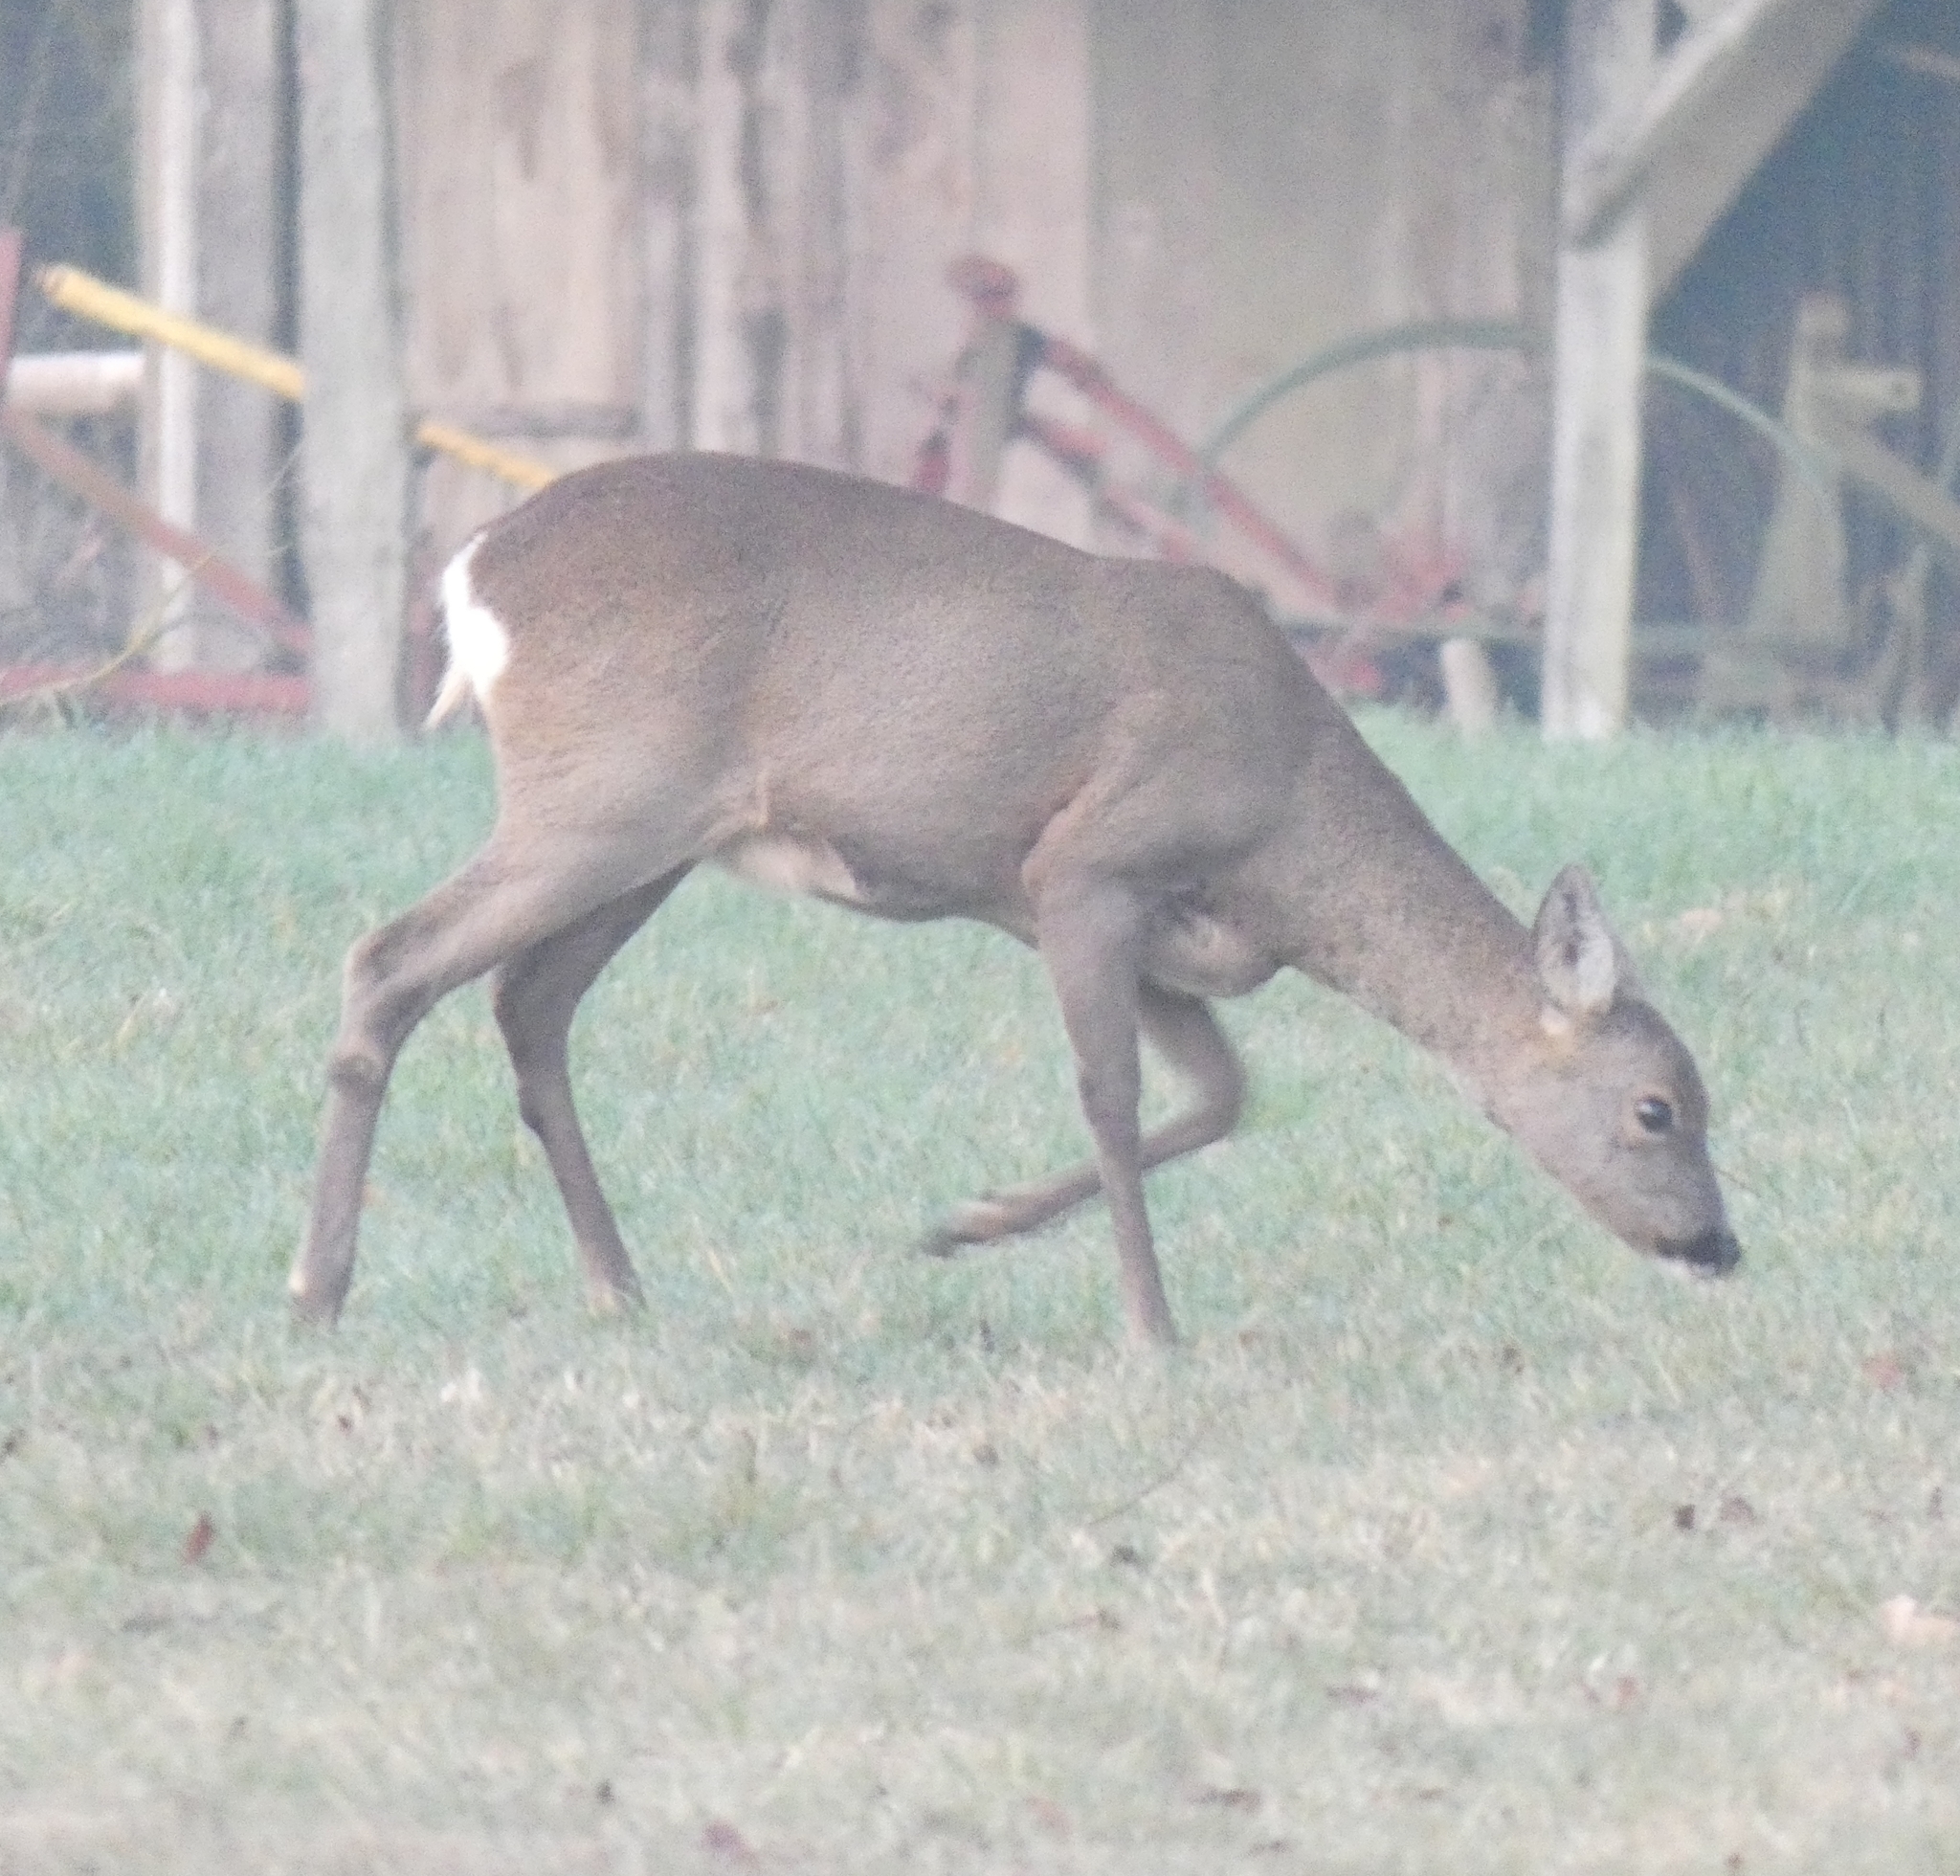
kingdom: Animalia
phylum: Chordata
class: Mammalia
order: Artiodactyla
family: Cervidae
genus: Capreolus
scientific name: Capreolus capreolus
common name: Western roe deer
